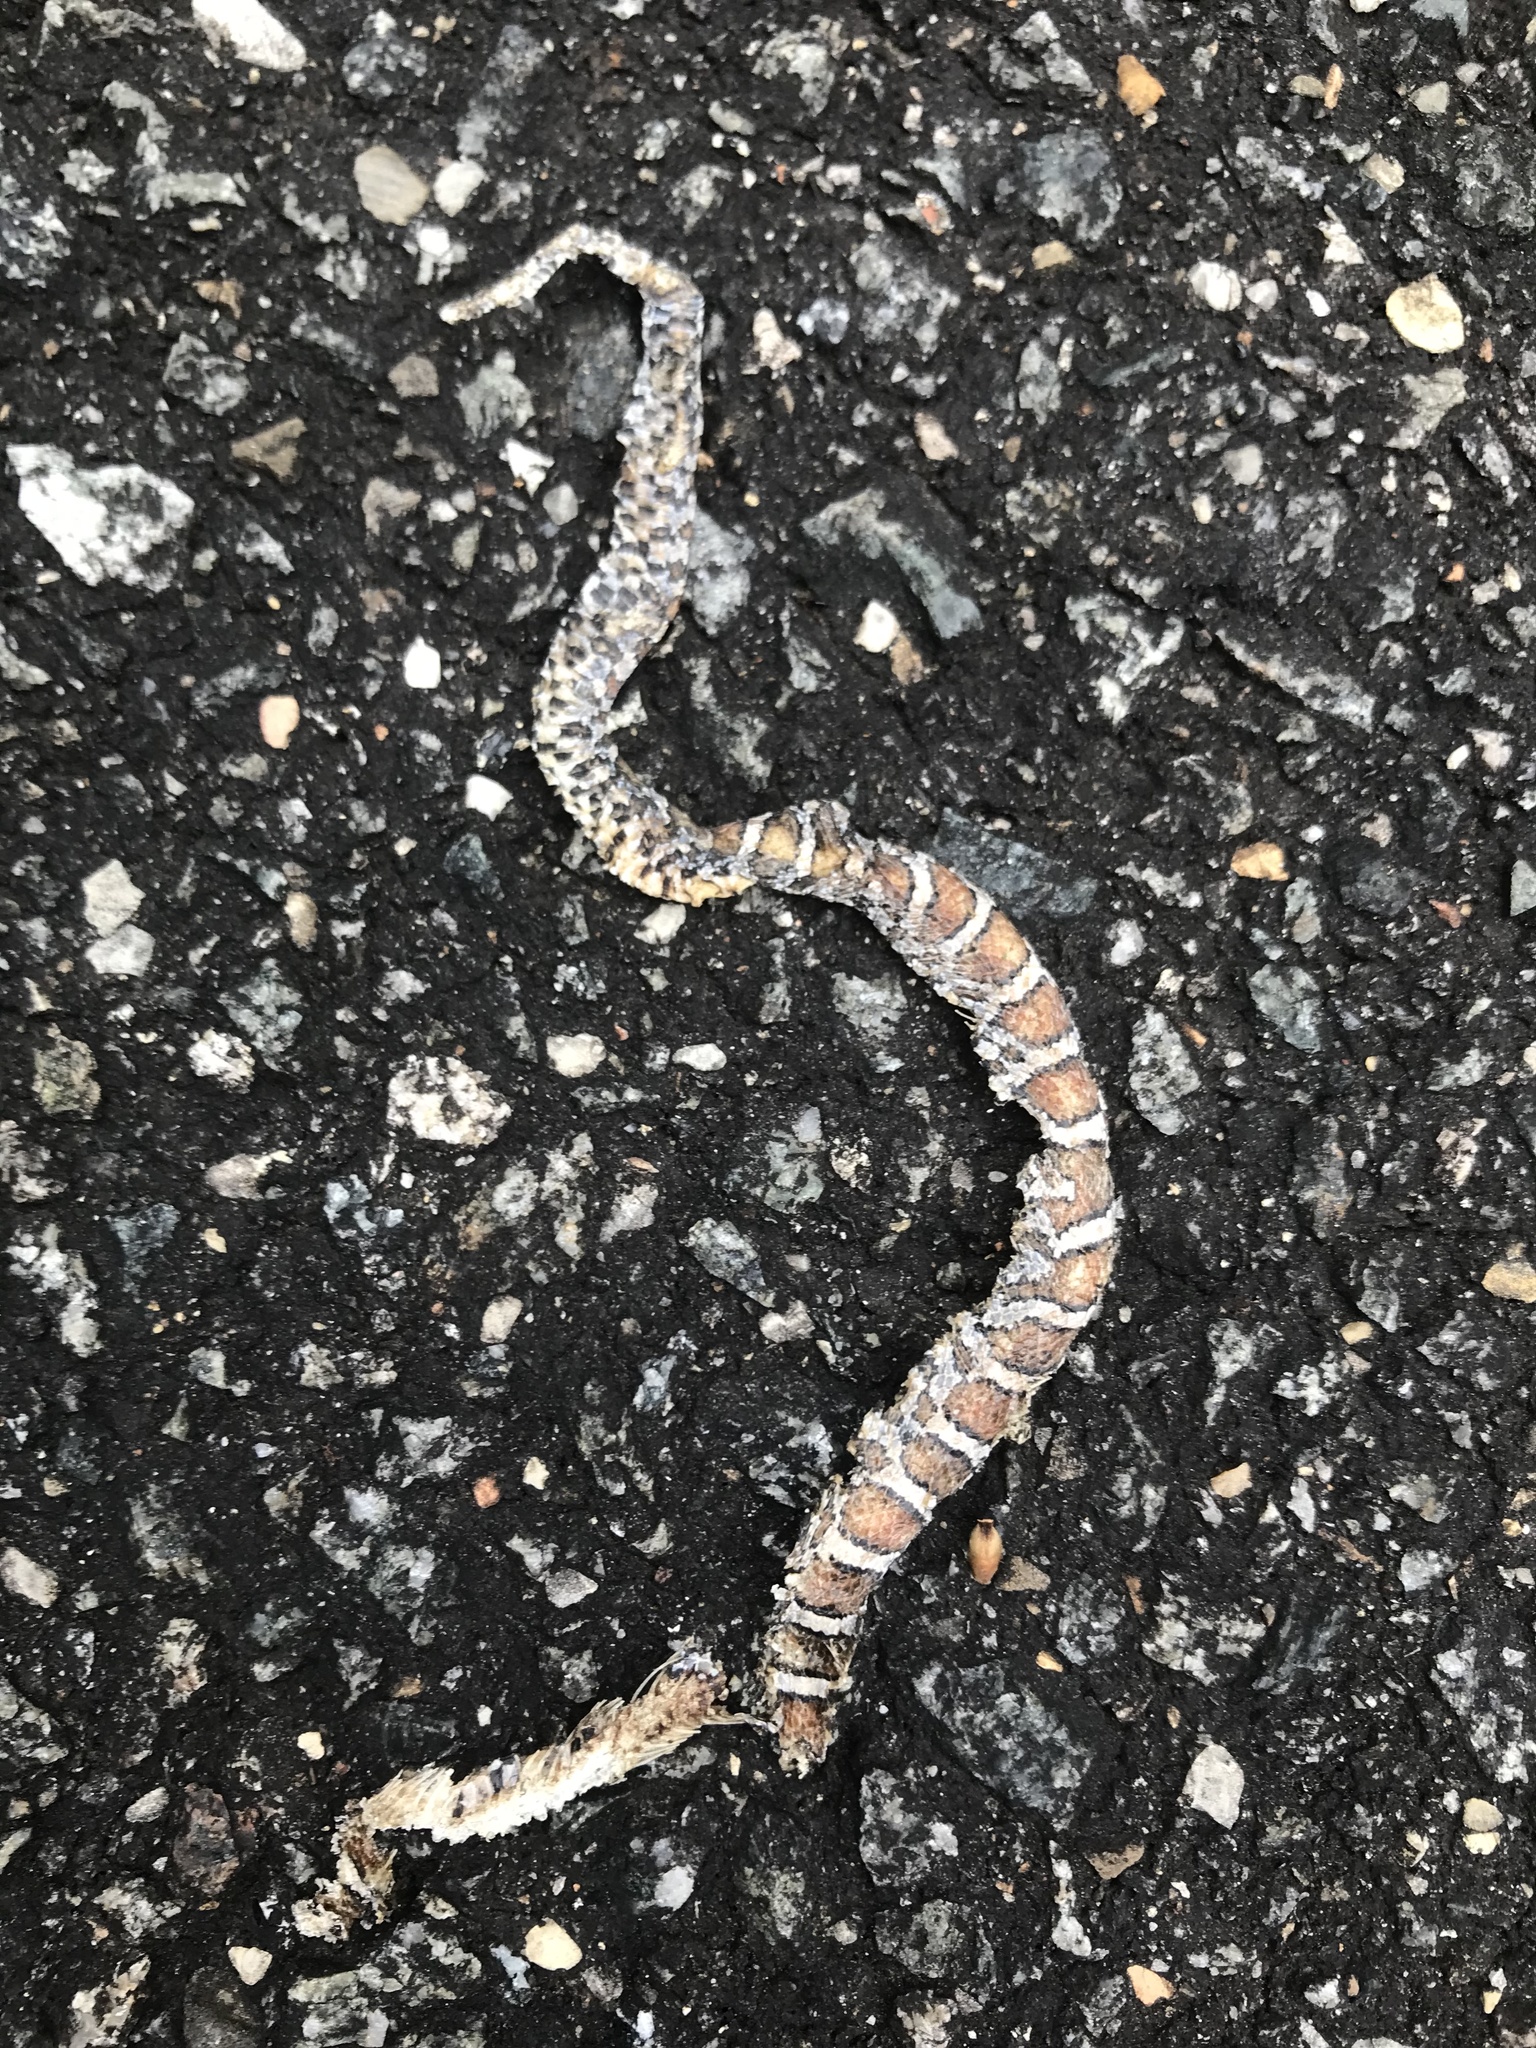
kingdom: Animalia
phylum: Chordata
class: Squamata
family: Colubridae
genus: Lampropeltis
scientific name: Lampropeltis triangulum
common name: Eastern milksnake
